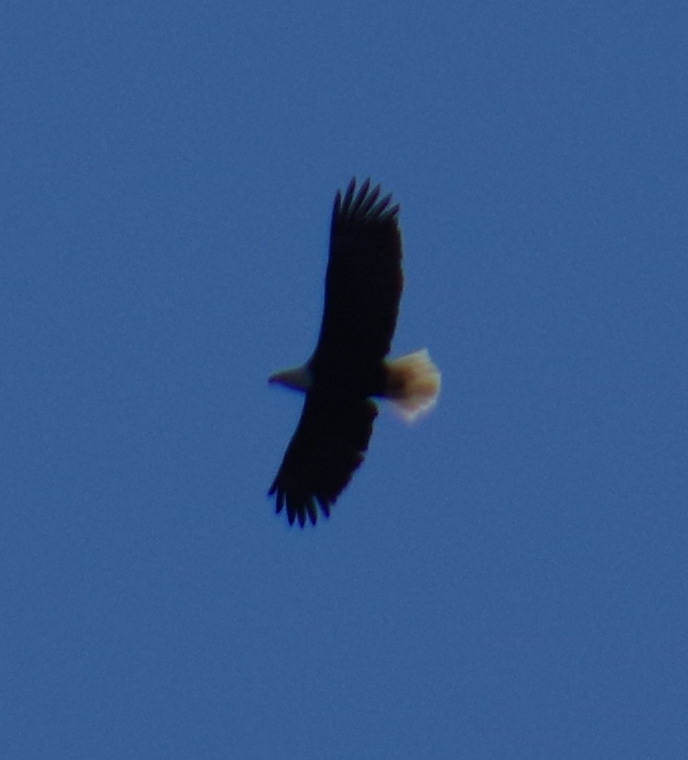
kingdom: Animalia
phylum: Chordata
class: Aves
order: Accipitriformes
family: Accipitridae
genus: Haliaeetus
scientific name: Haliaeetus leucocephalus
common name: Bald eagle
